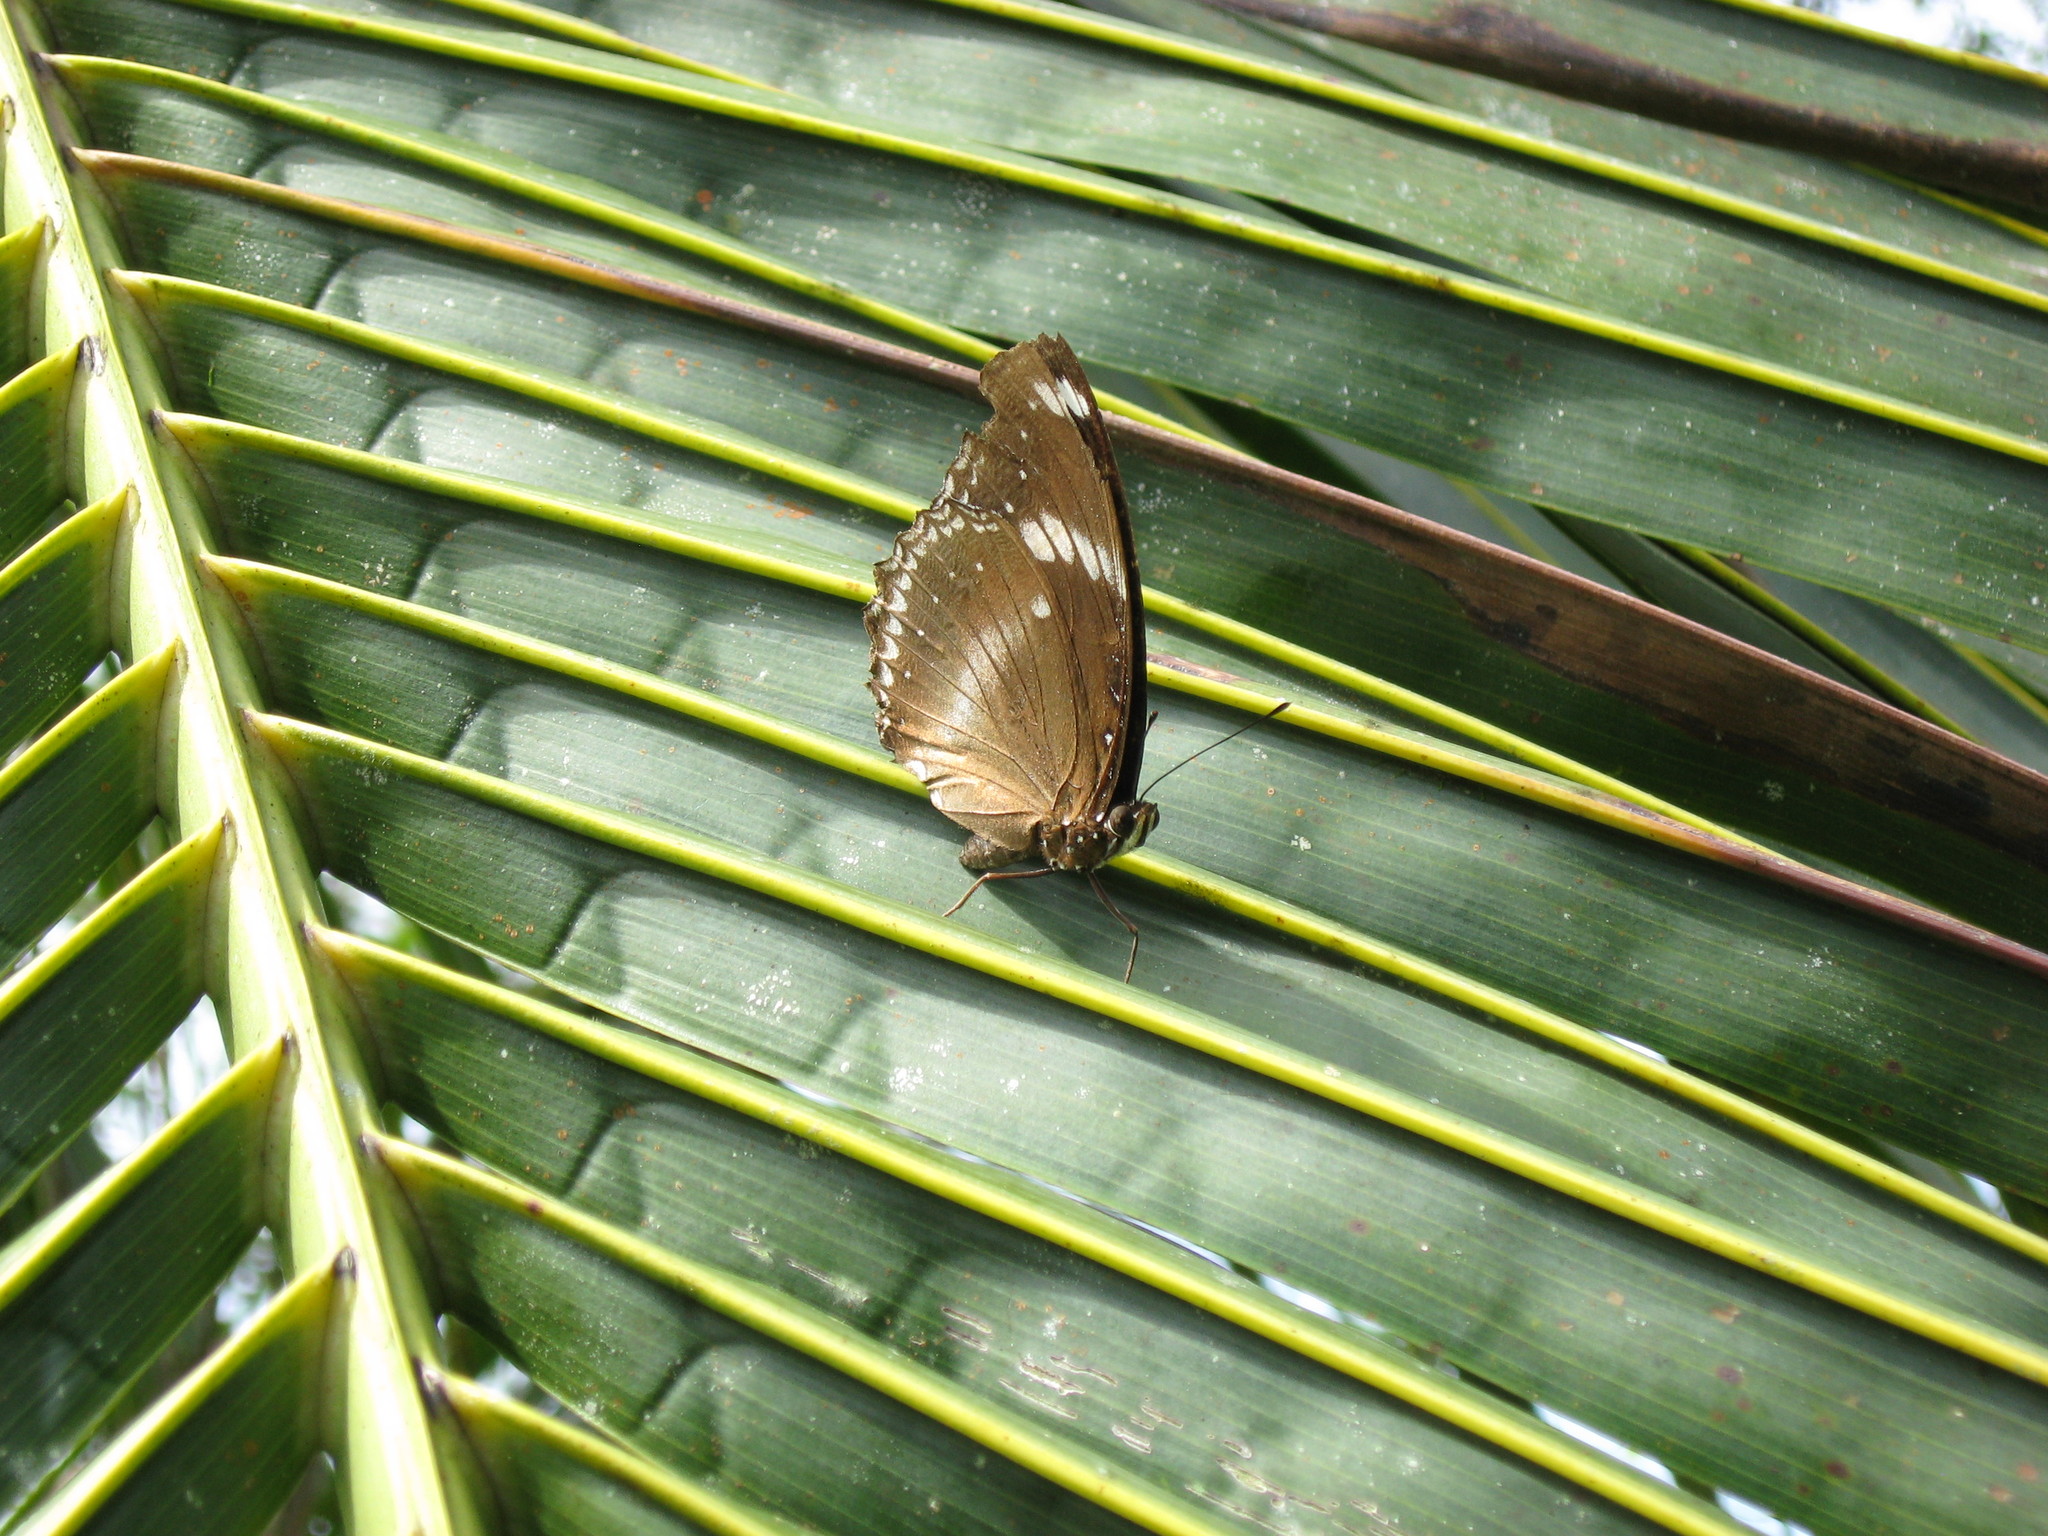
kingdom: Animalia
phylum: Arthropoda
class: Insecta
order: Lepidoptera
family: Nymphalidae
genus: Hypolimnas
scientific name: Hypolimnas bolina
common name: Great eggfly
